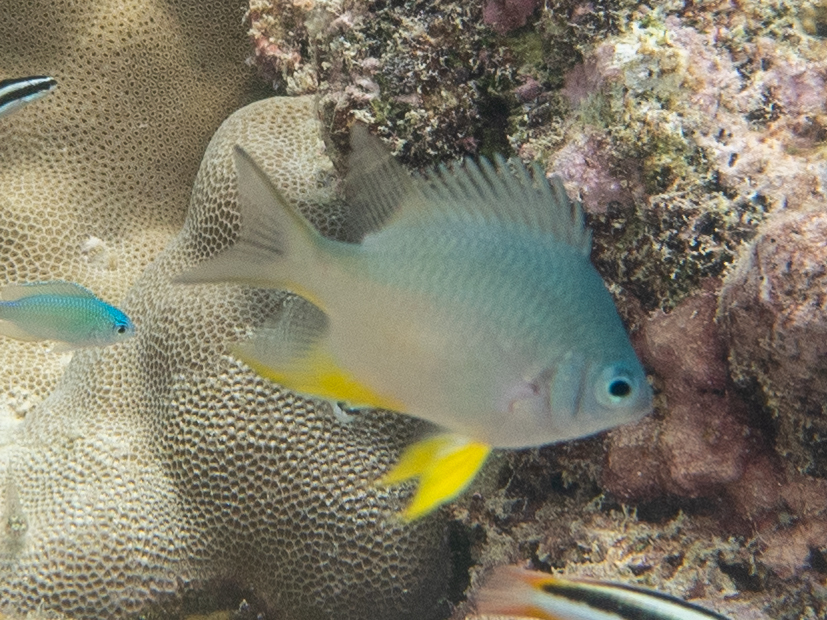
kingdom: Animalia
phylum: Chordata
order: Perciformes
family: Pomacentridae
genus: Amblyglyphidodon
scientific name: Amblyglyphidodon indicus
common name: Maldives damselfish
